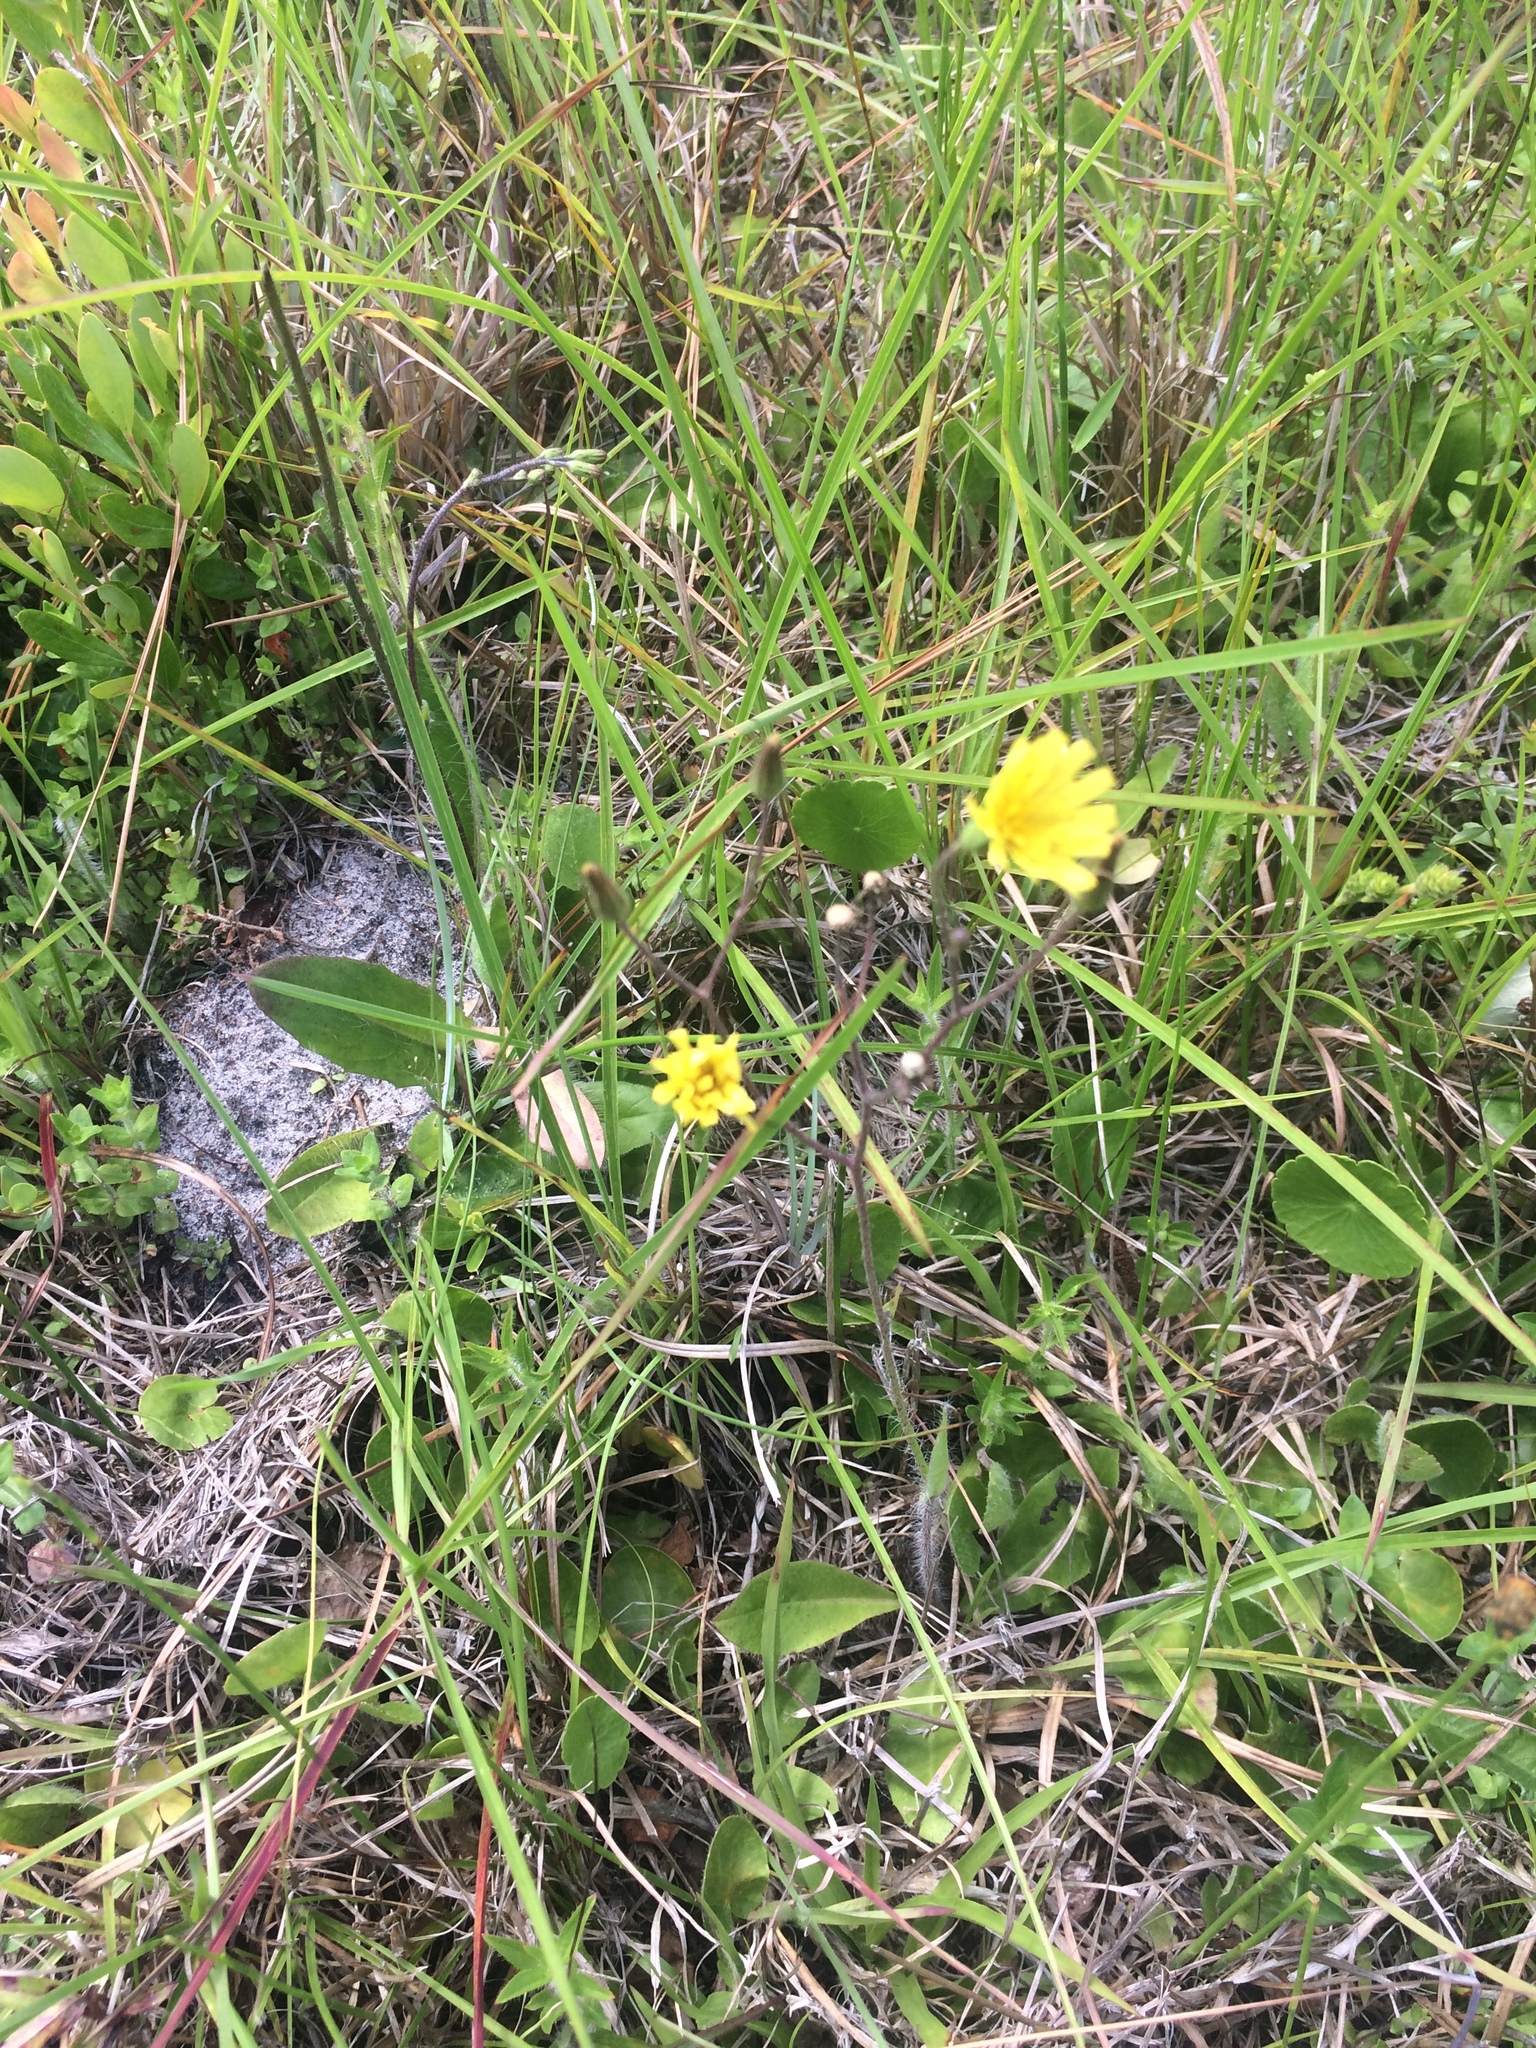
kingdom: Plantae
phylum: Tracheophyta
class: Magnoliopsida
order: Asterales
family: Asteraceae
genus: Hieracium
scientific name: Hieracium megacephalum
